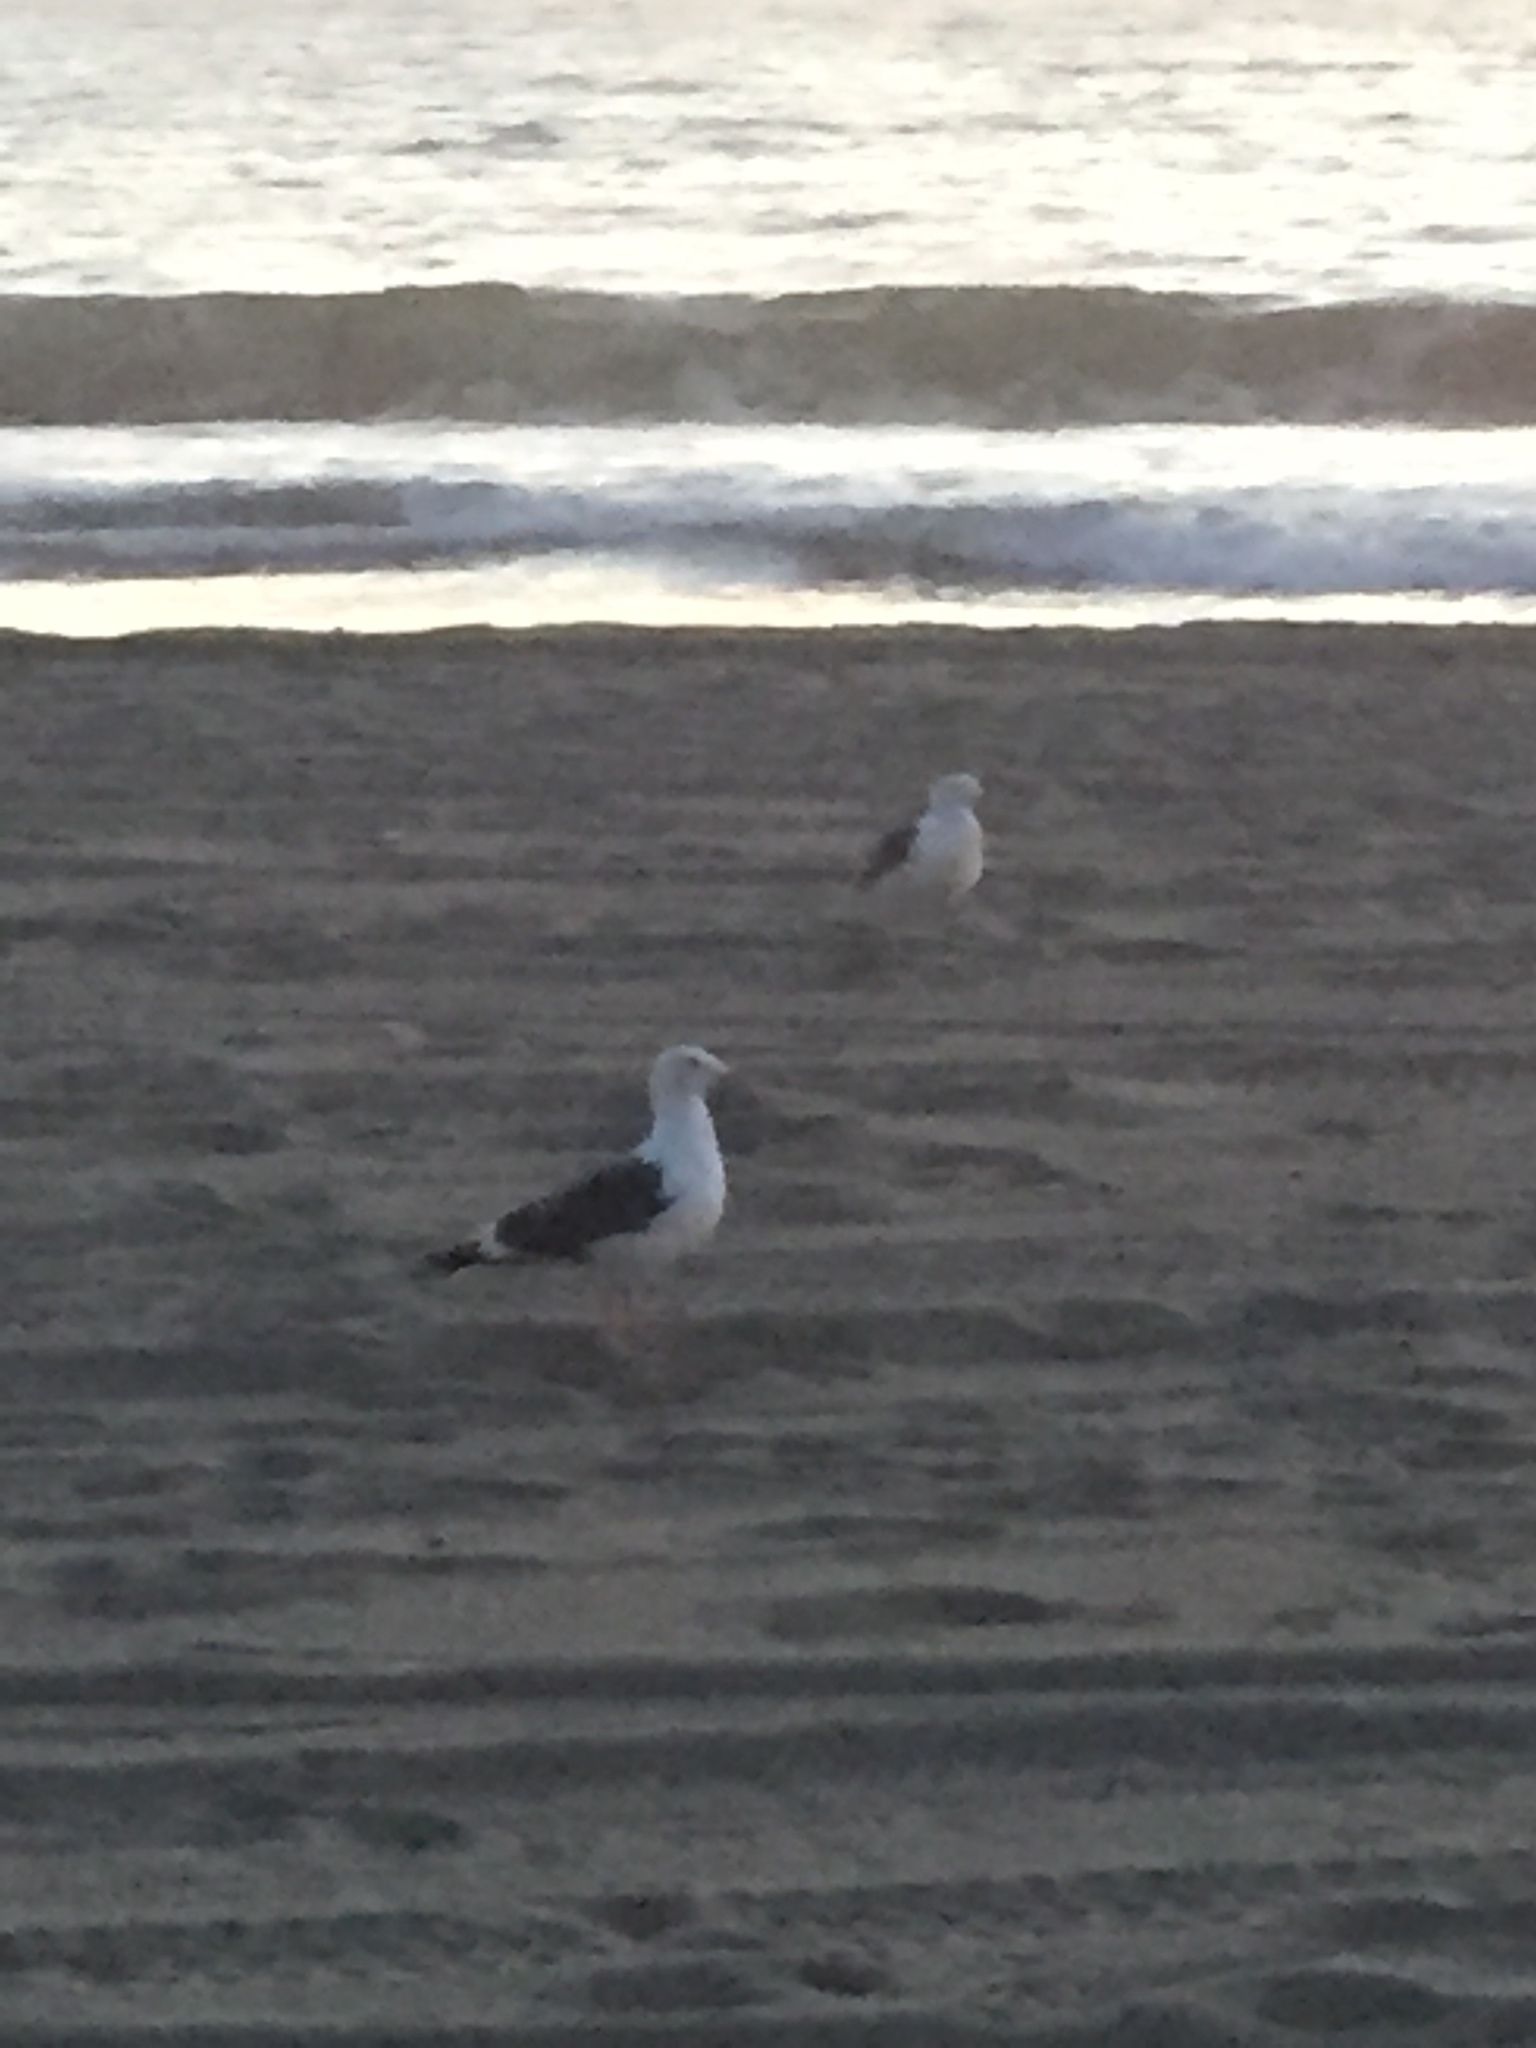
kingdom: Animalia
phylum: Chordata
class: Aves
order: Charadriiformes
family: Laridae
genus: Larus
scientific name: Larus occidentalis
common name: Western gull
